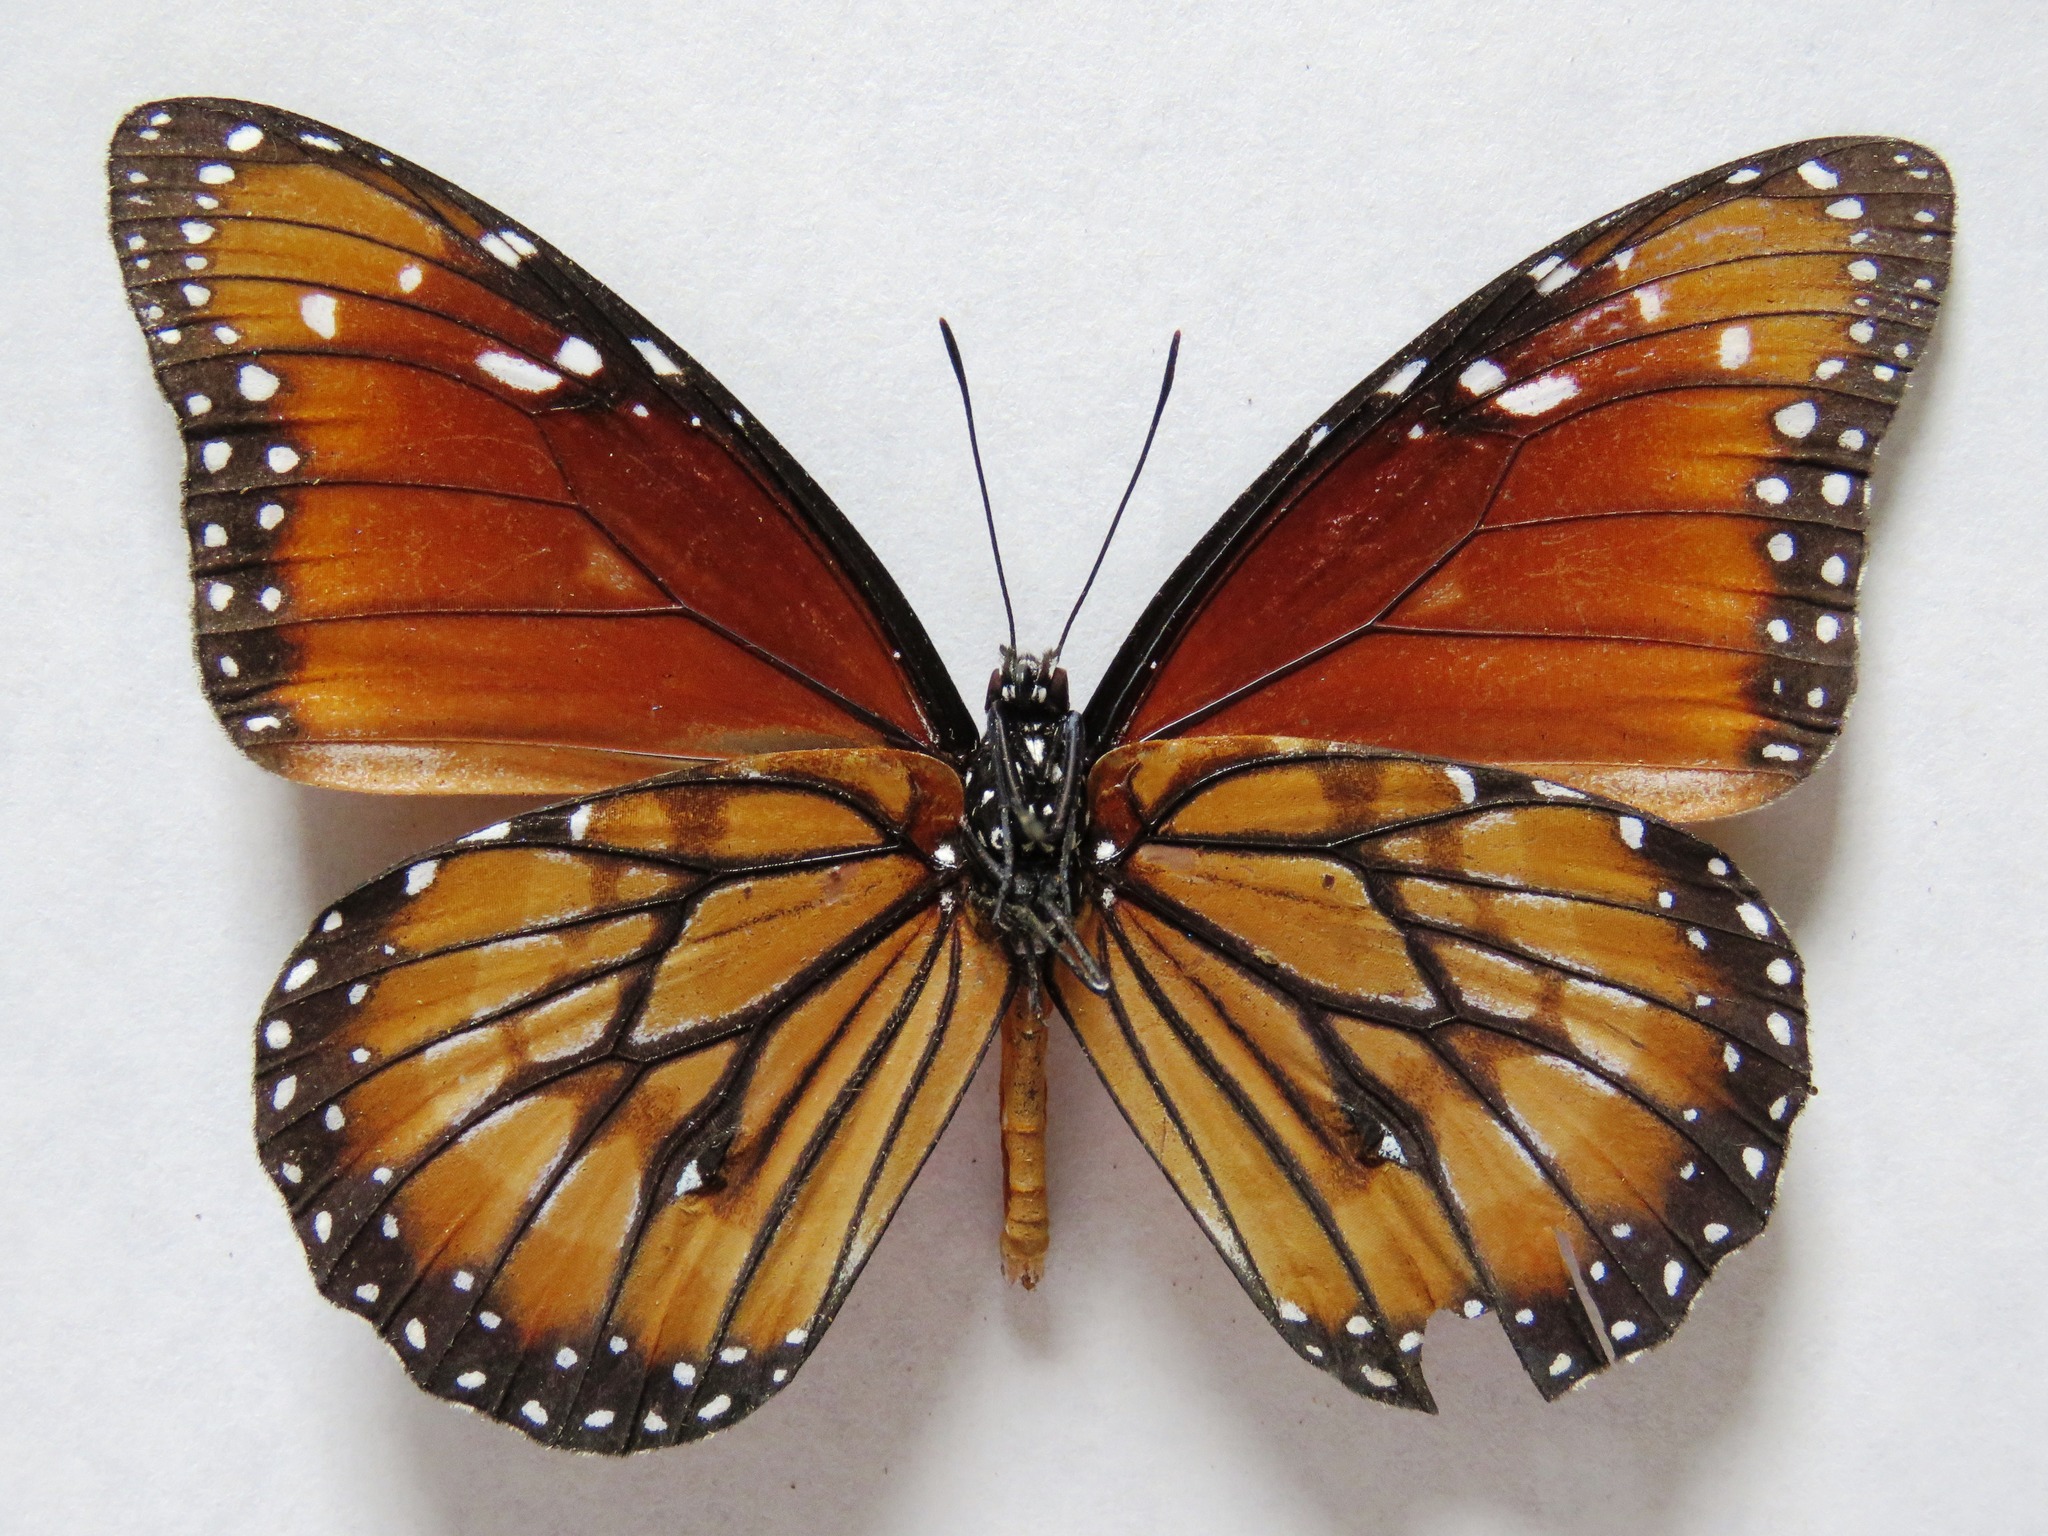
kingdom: Animalia
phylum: Arthropoda
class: Insecta
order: Lepidoptera
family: Nymphalidae
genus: Danaus
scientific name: Danaus eresimus
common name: Soldier
